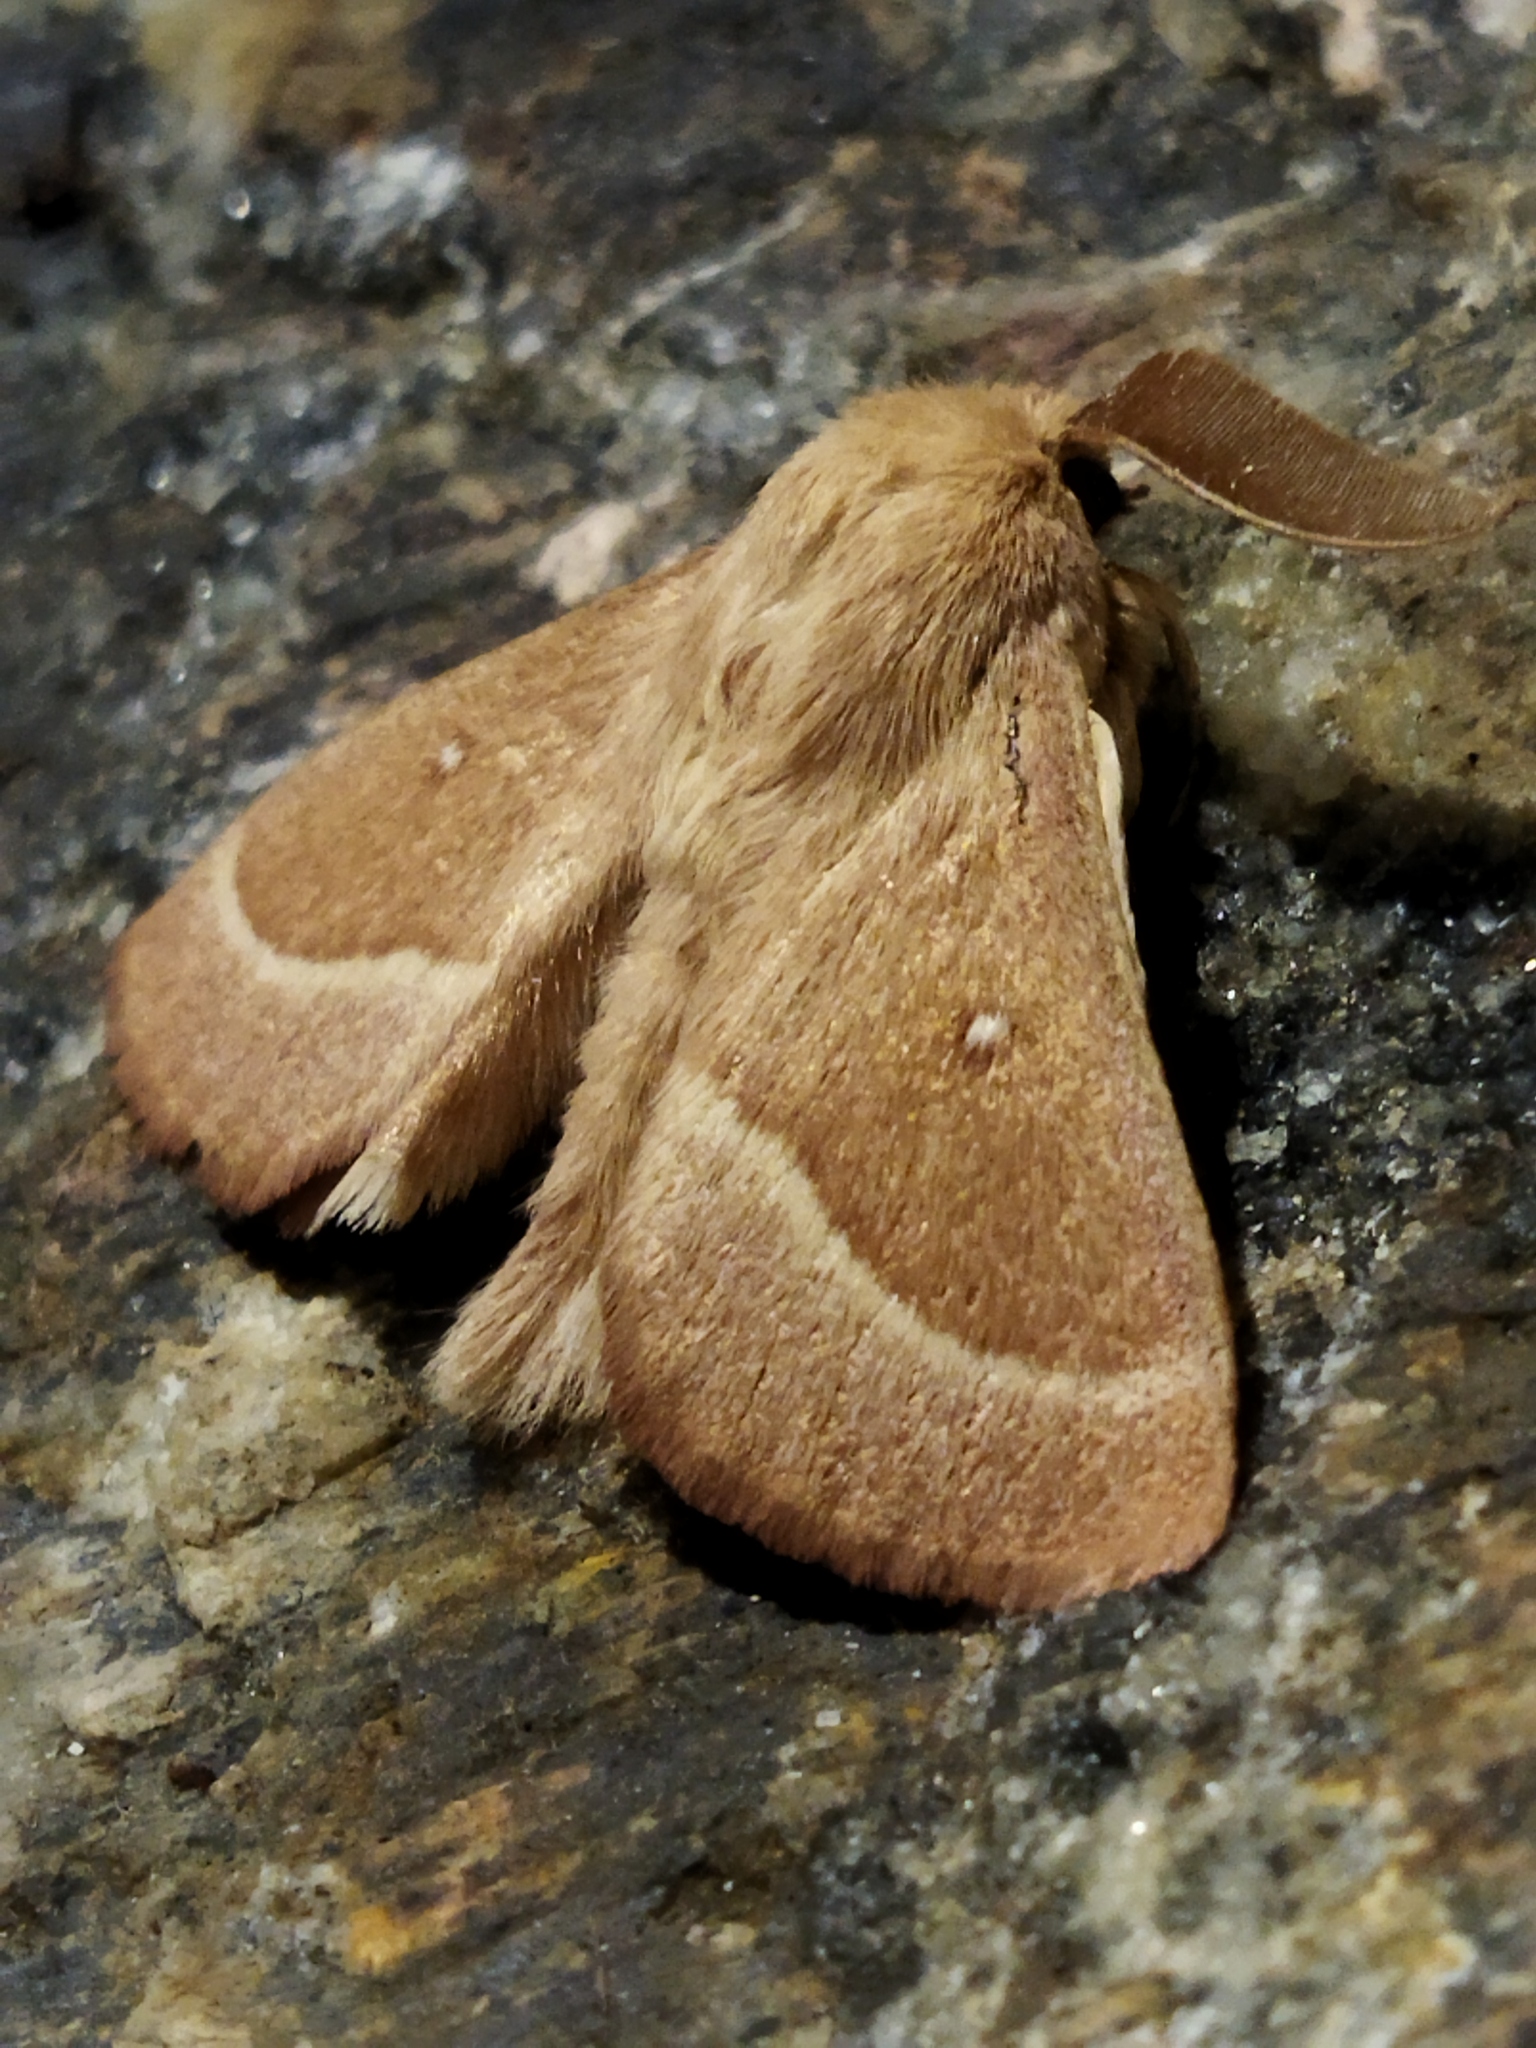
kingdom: Animalia
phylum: Arthropoda
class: Insecta
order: Lepidoptera
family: Lasiocampidae
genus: Lasiocampa
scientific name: Lasiocampa trifolii
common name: Grass eggar
